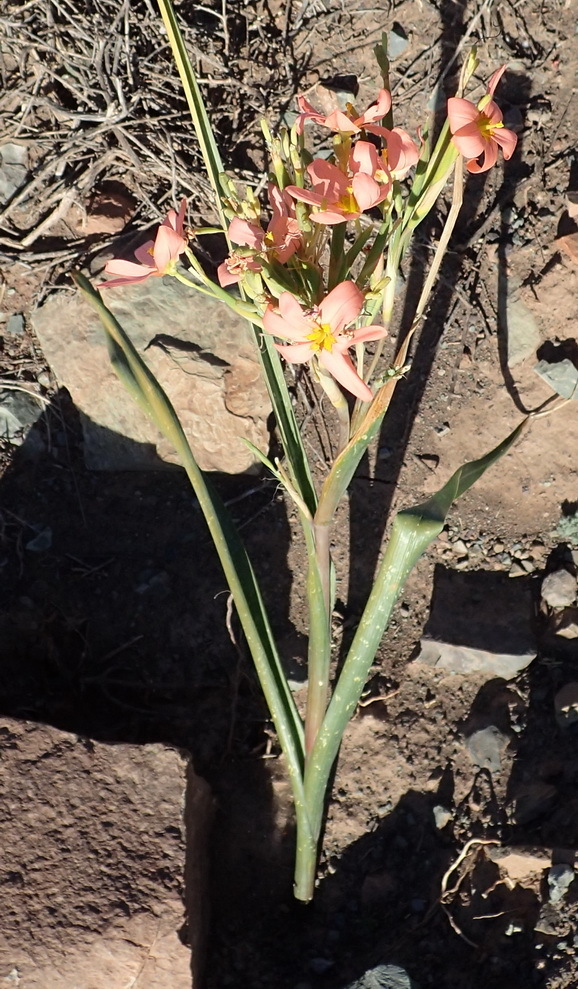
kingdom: Plantae
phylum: Tracheophyta
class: Liliopsida
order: Asparagales
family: Iridaceae
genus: Moraea
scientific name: Moraea bifida
